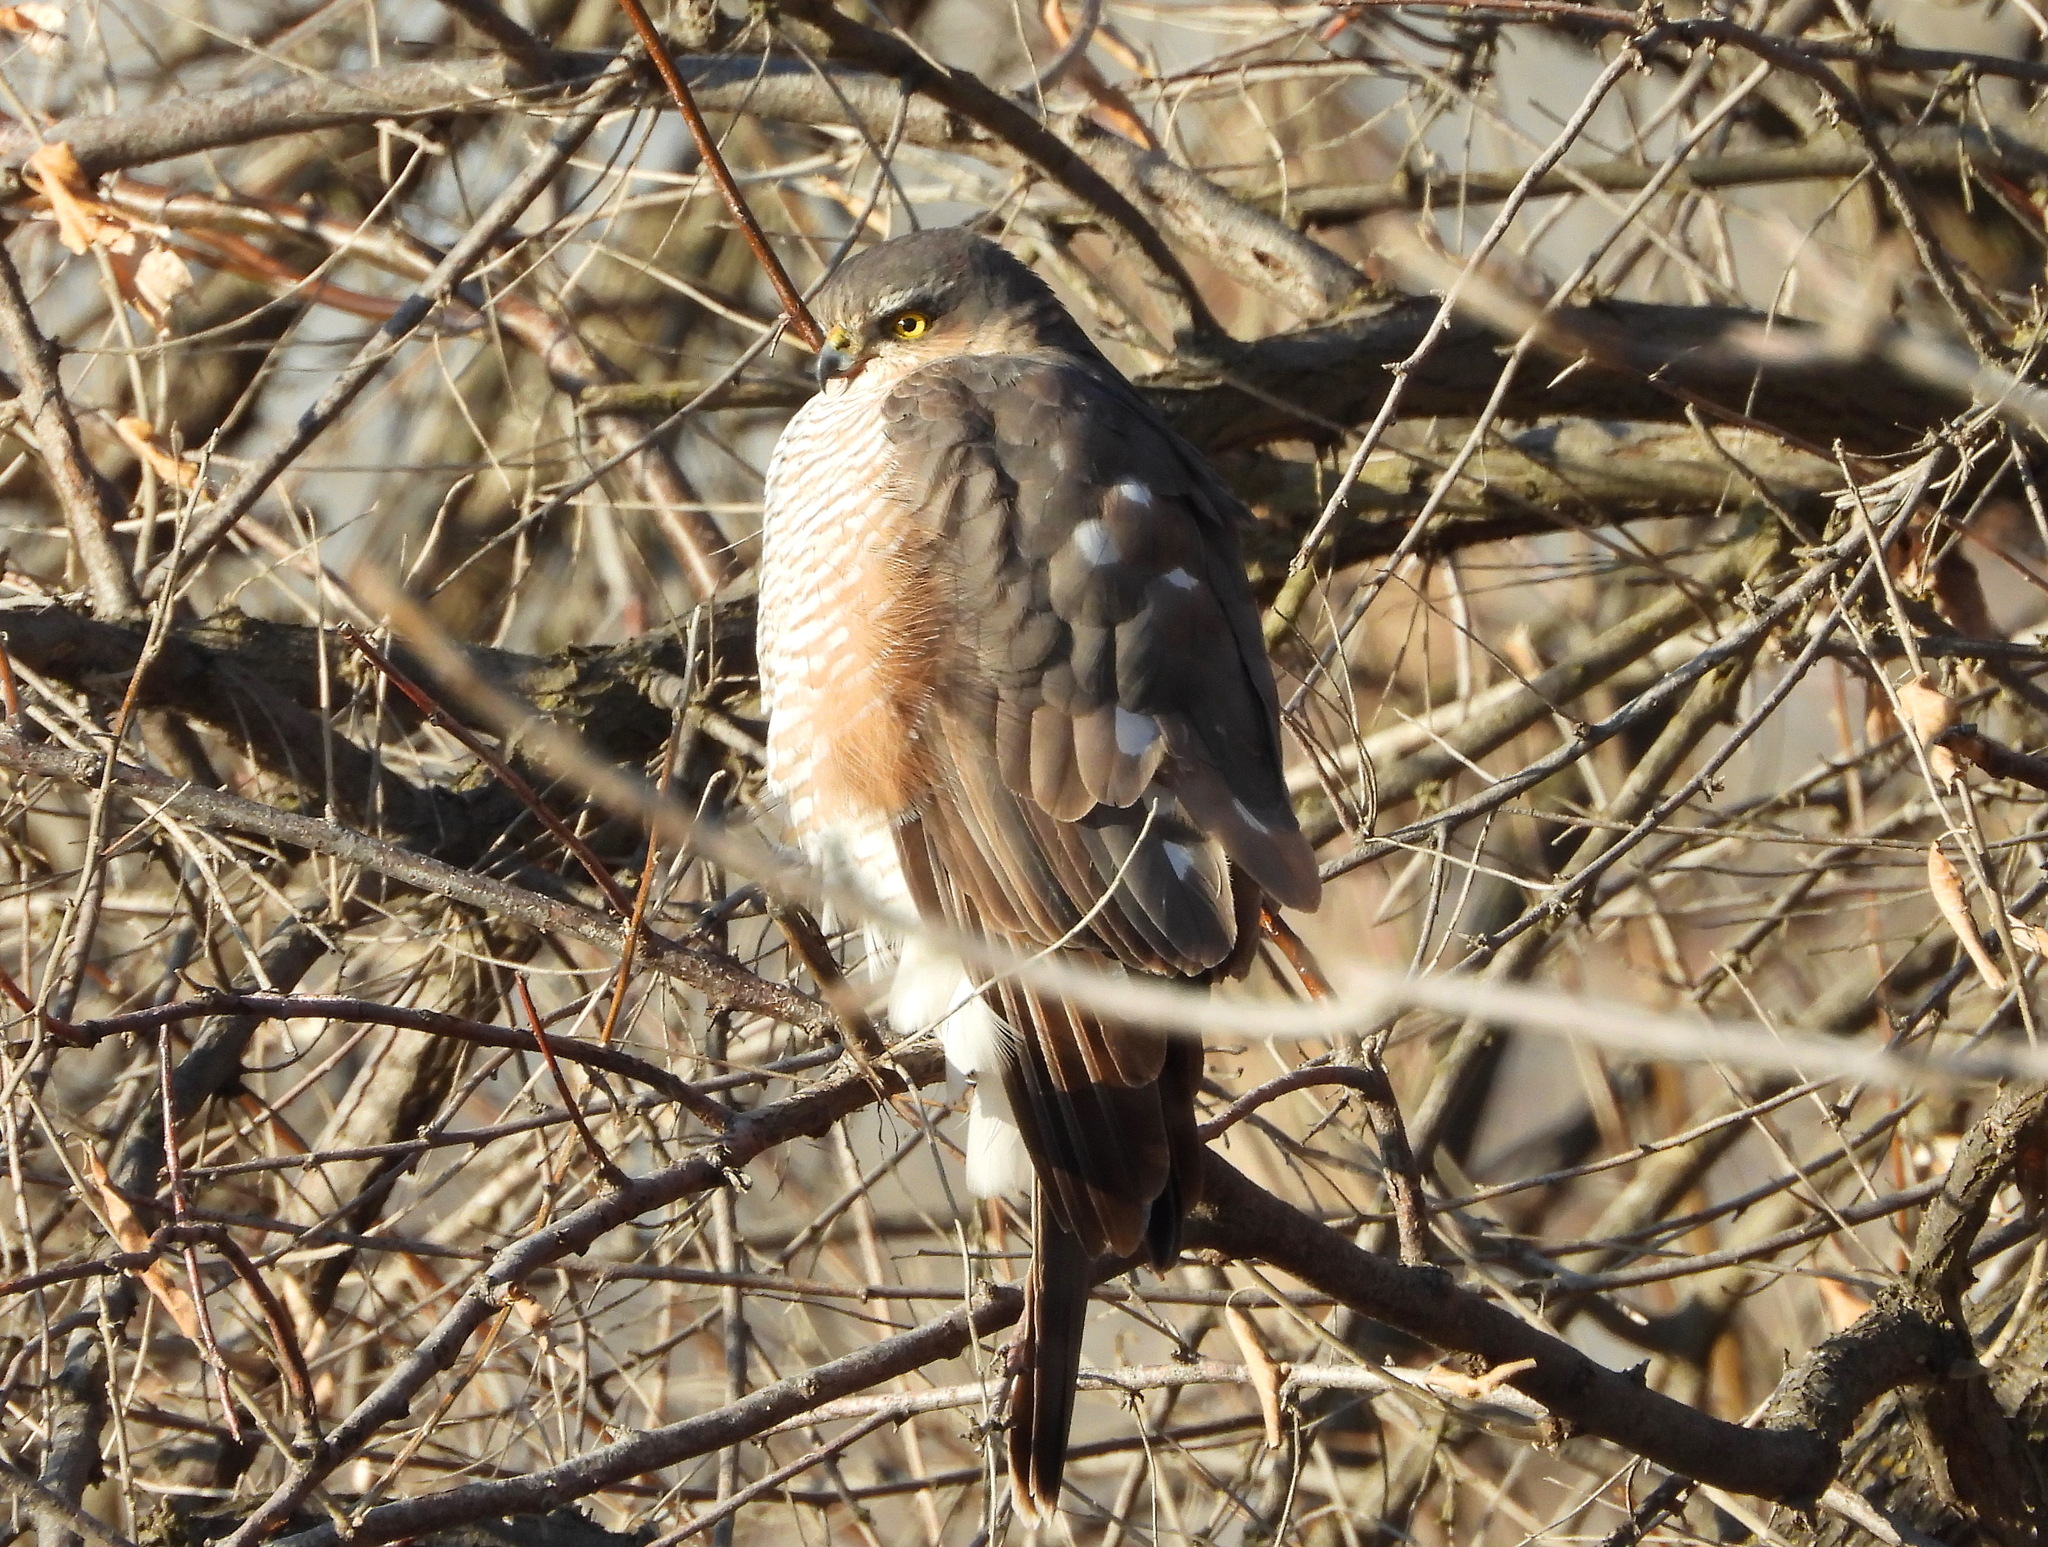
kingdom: Animalia
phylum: Chordata
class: Aves
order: Accipitriformes
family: Accipitridae
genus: Accipiter
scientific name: Accipiter nisus
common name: Eurasian sparrowhawk
